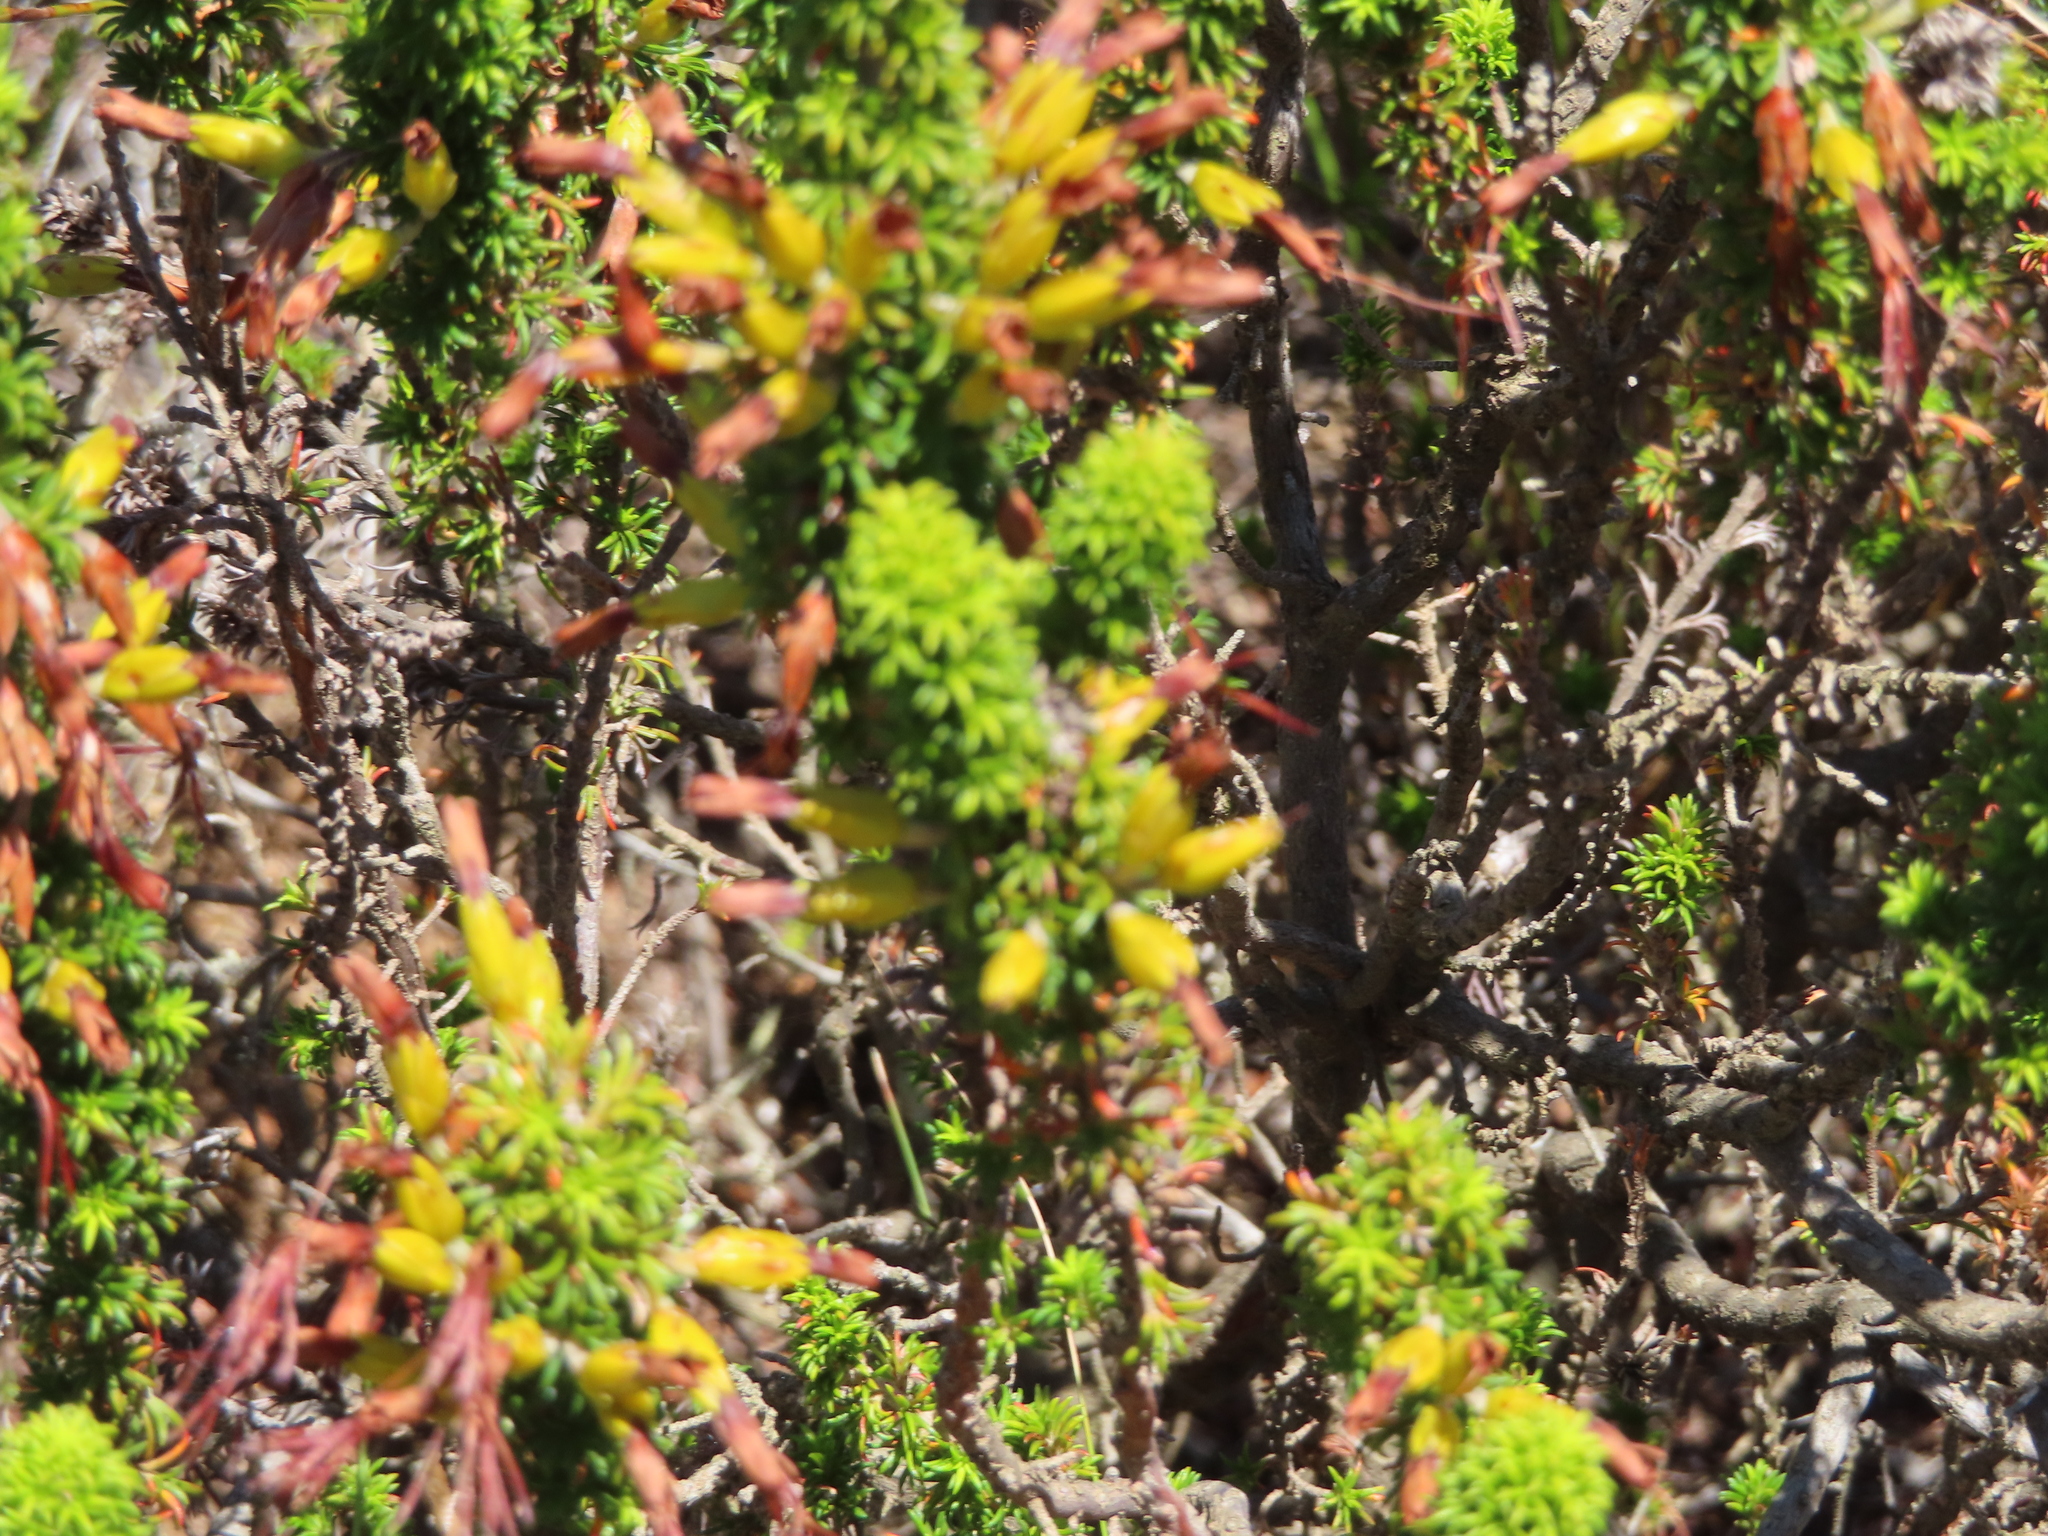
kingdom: Plantae
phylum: Tracheophyta
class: Magnoliopsida
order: Ericales
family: Ericaceae
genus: Erica
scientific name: Erica coccinea
